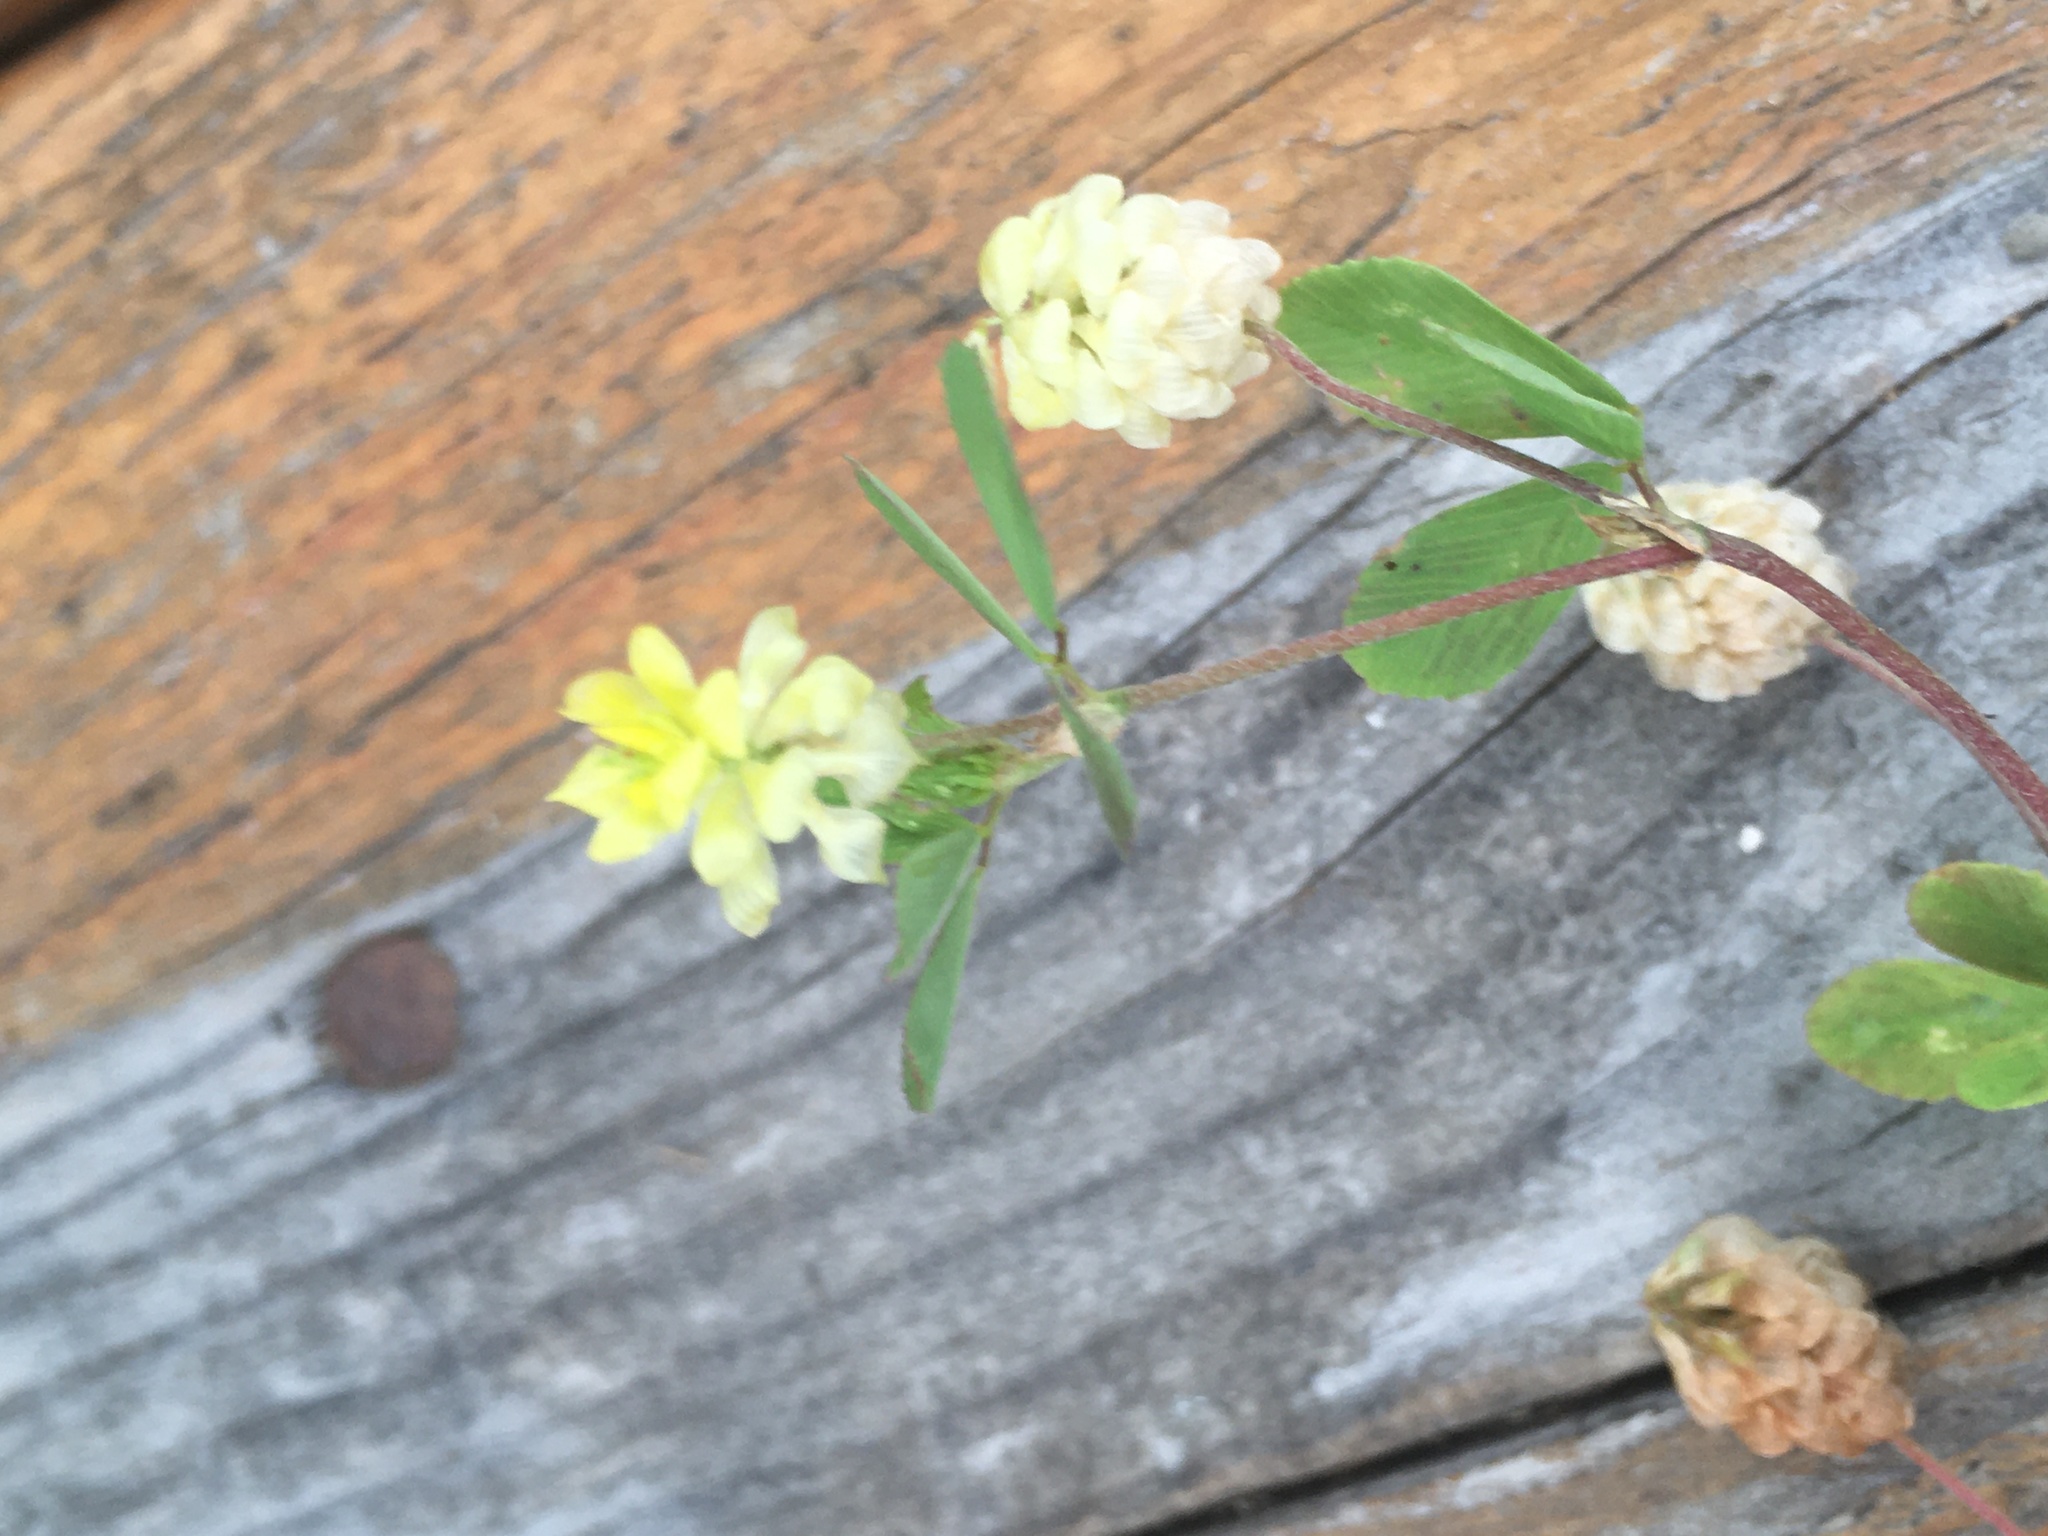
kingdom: Plantae
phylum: Tracheophyta
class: Magnoliopsida
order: Fabales
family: Fabaceae
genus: Trifolium
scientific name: Trifolium campestre
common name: Field clover
